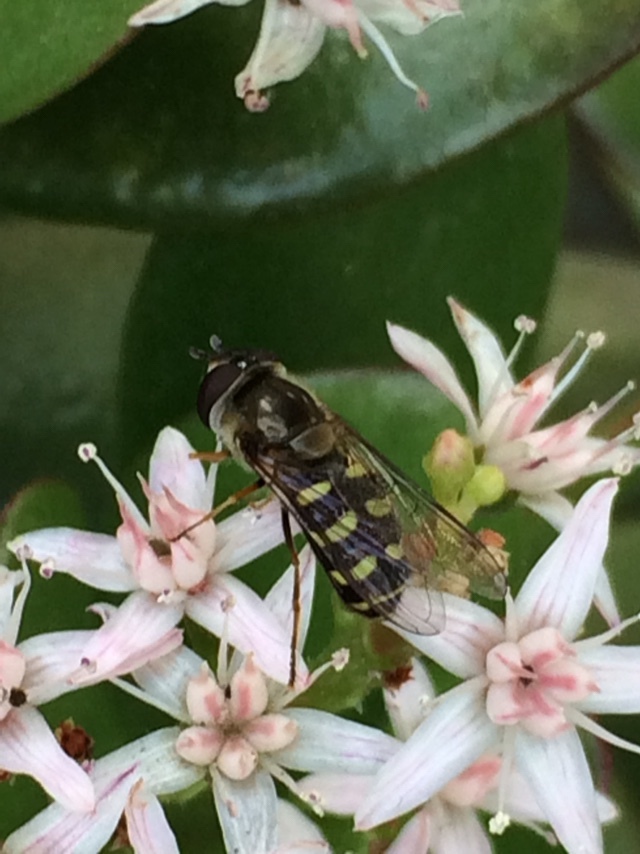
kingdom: Animalia
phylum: Arthropoda
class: Insecta
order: Diptera
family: Syrphidae
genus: Lapposyrphus
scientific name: Lapposyrphus lapponicus
